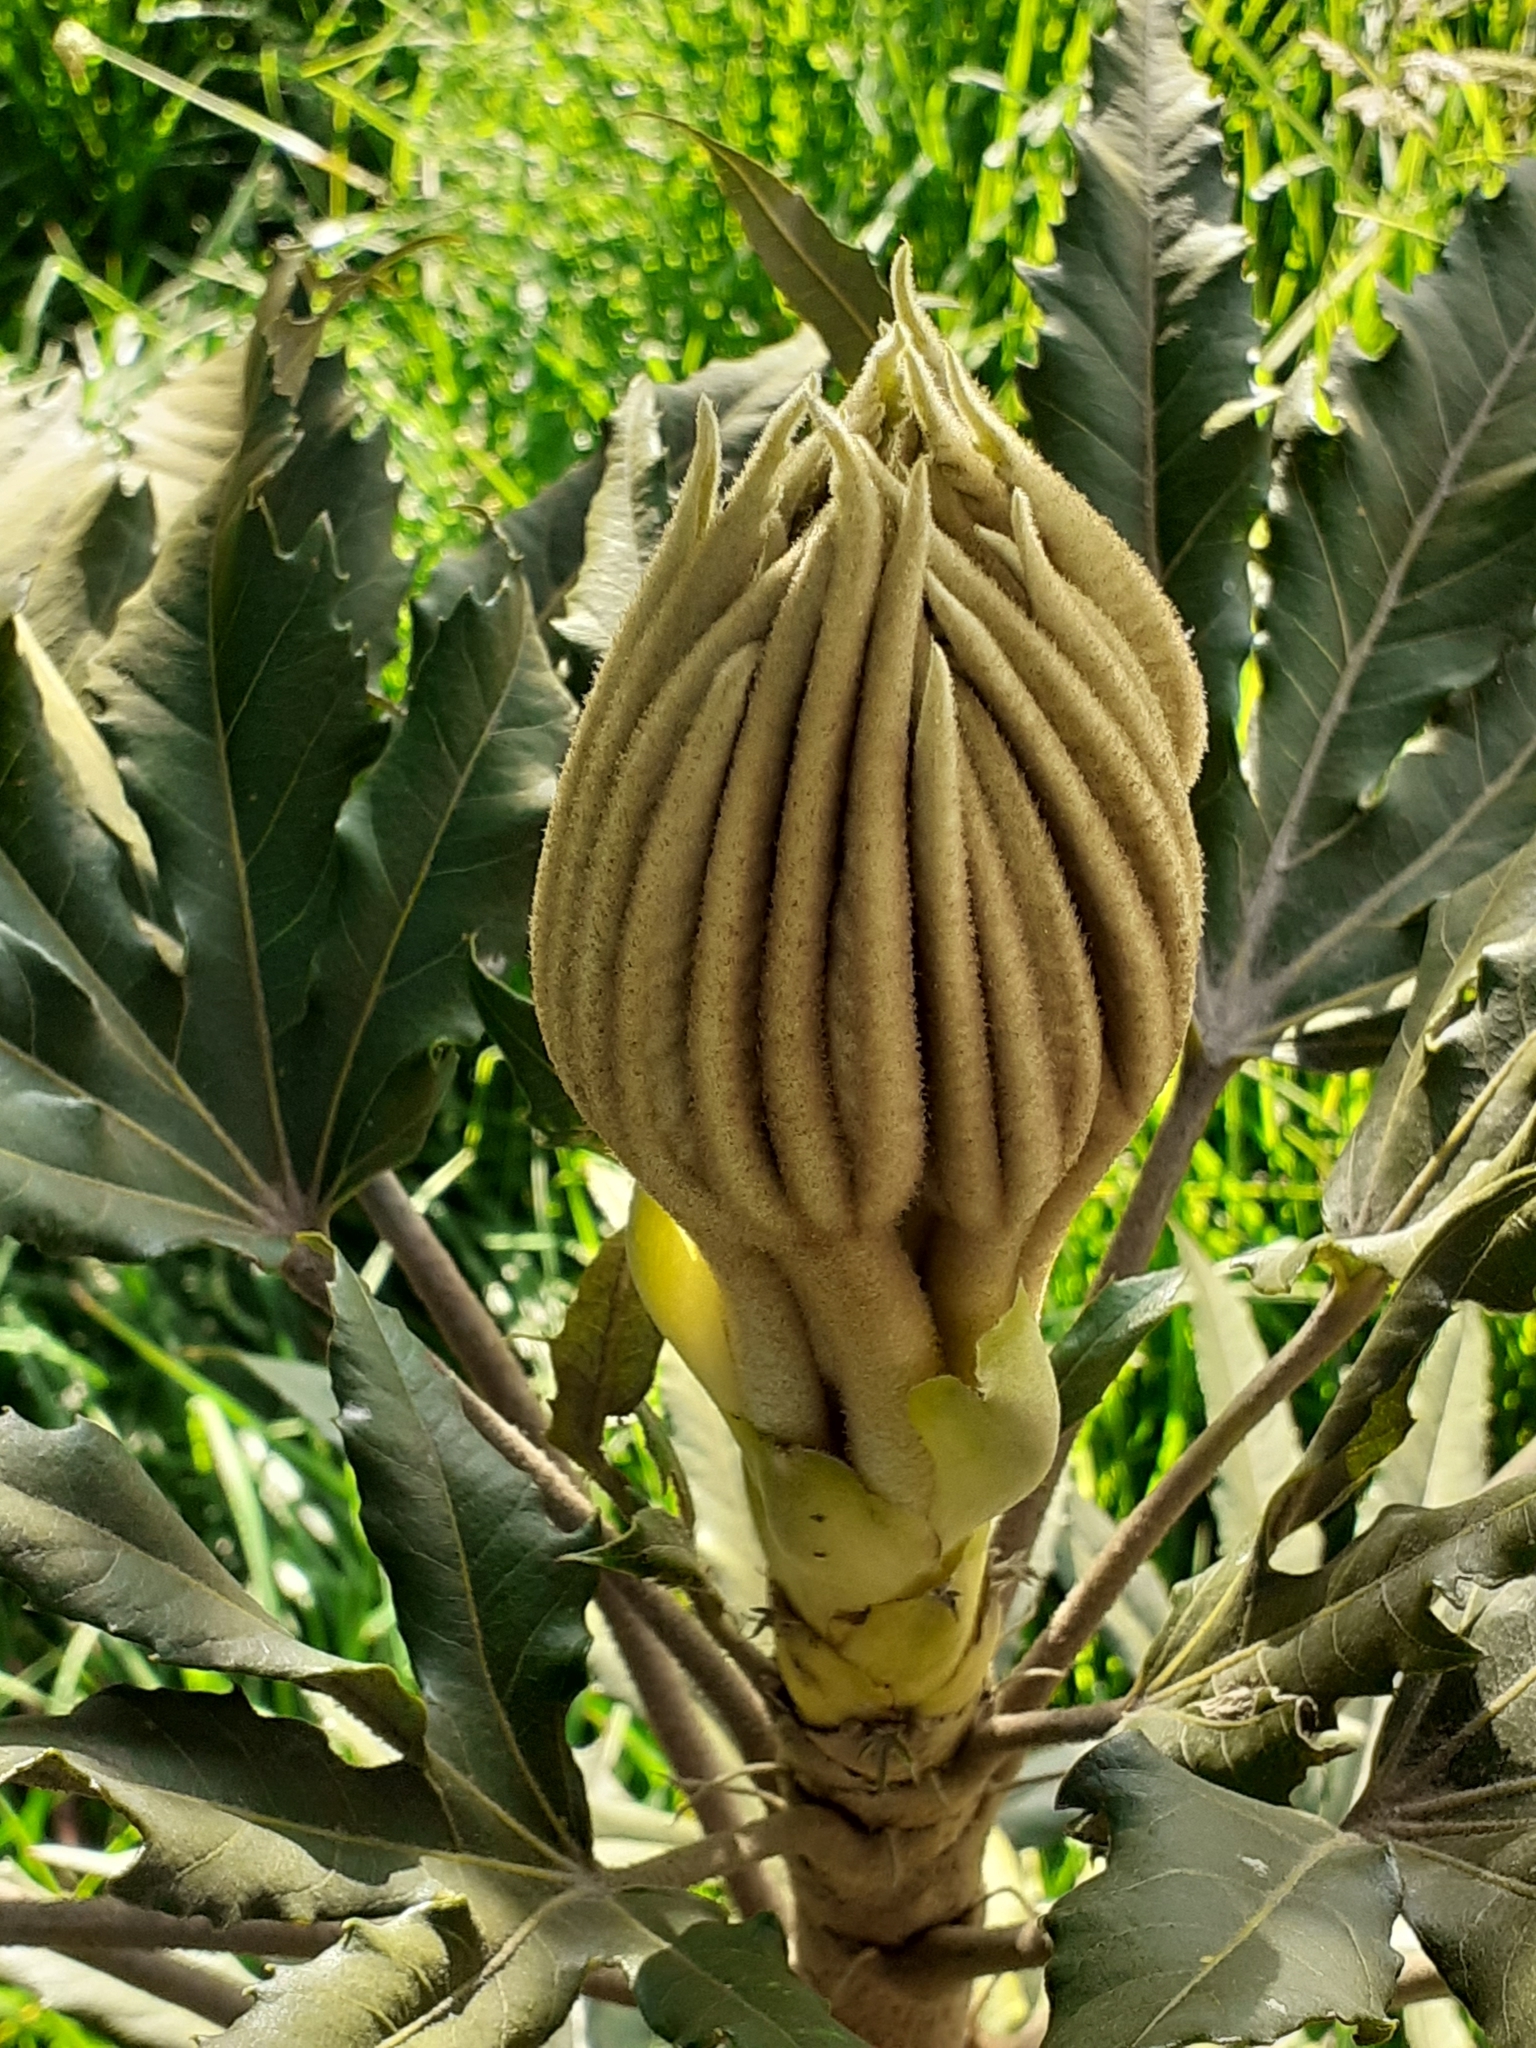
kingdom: Plantae
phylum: Tracheophyta
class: Magnoliopsida
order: Apiales
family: Araliaceae
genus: Oreopanax
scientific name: Oreopanax ecuadorensis
